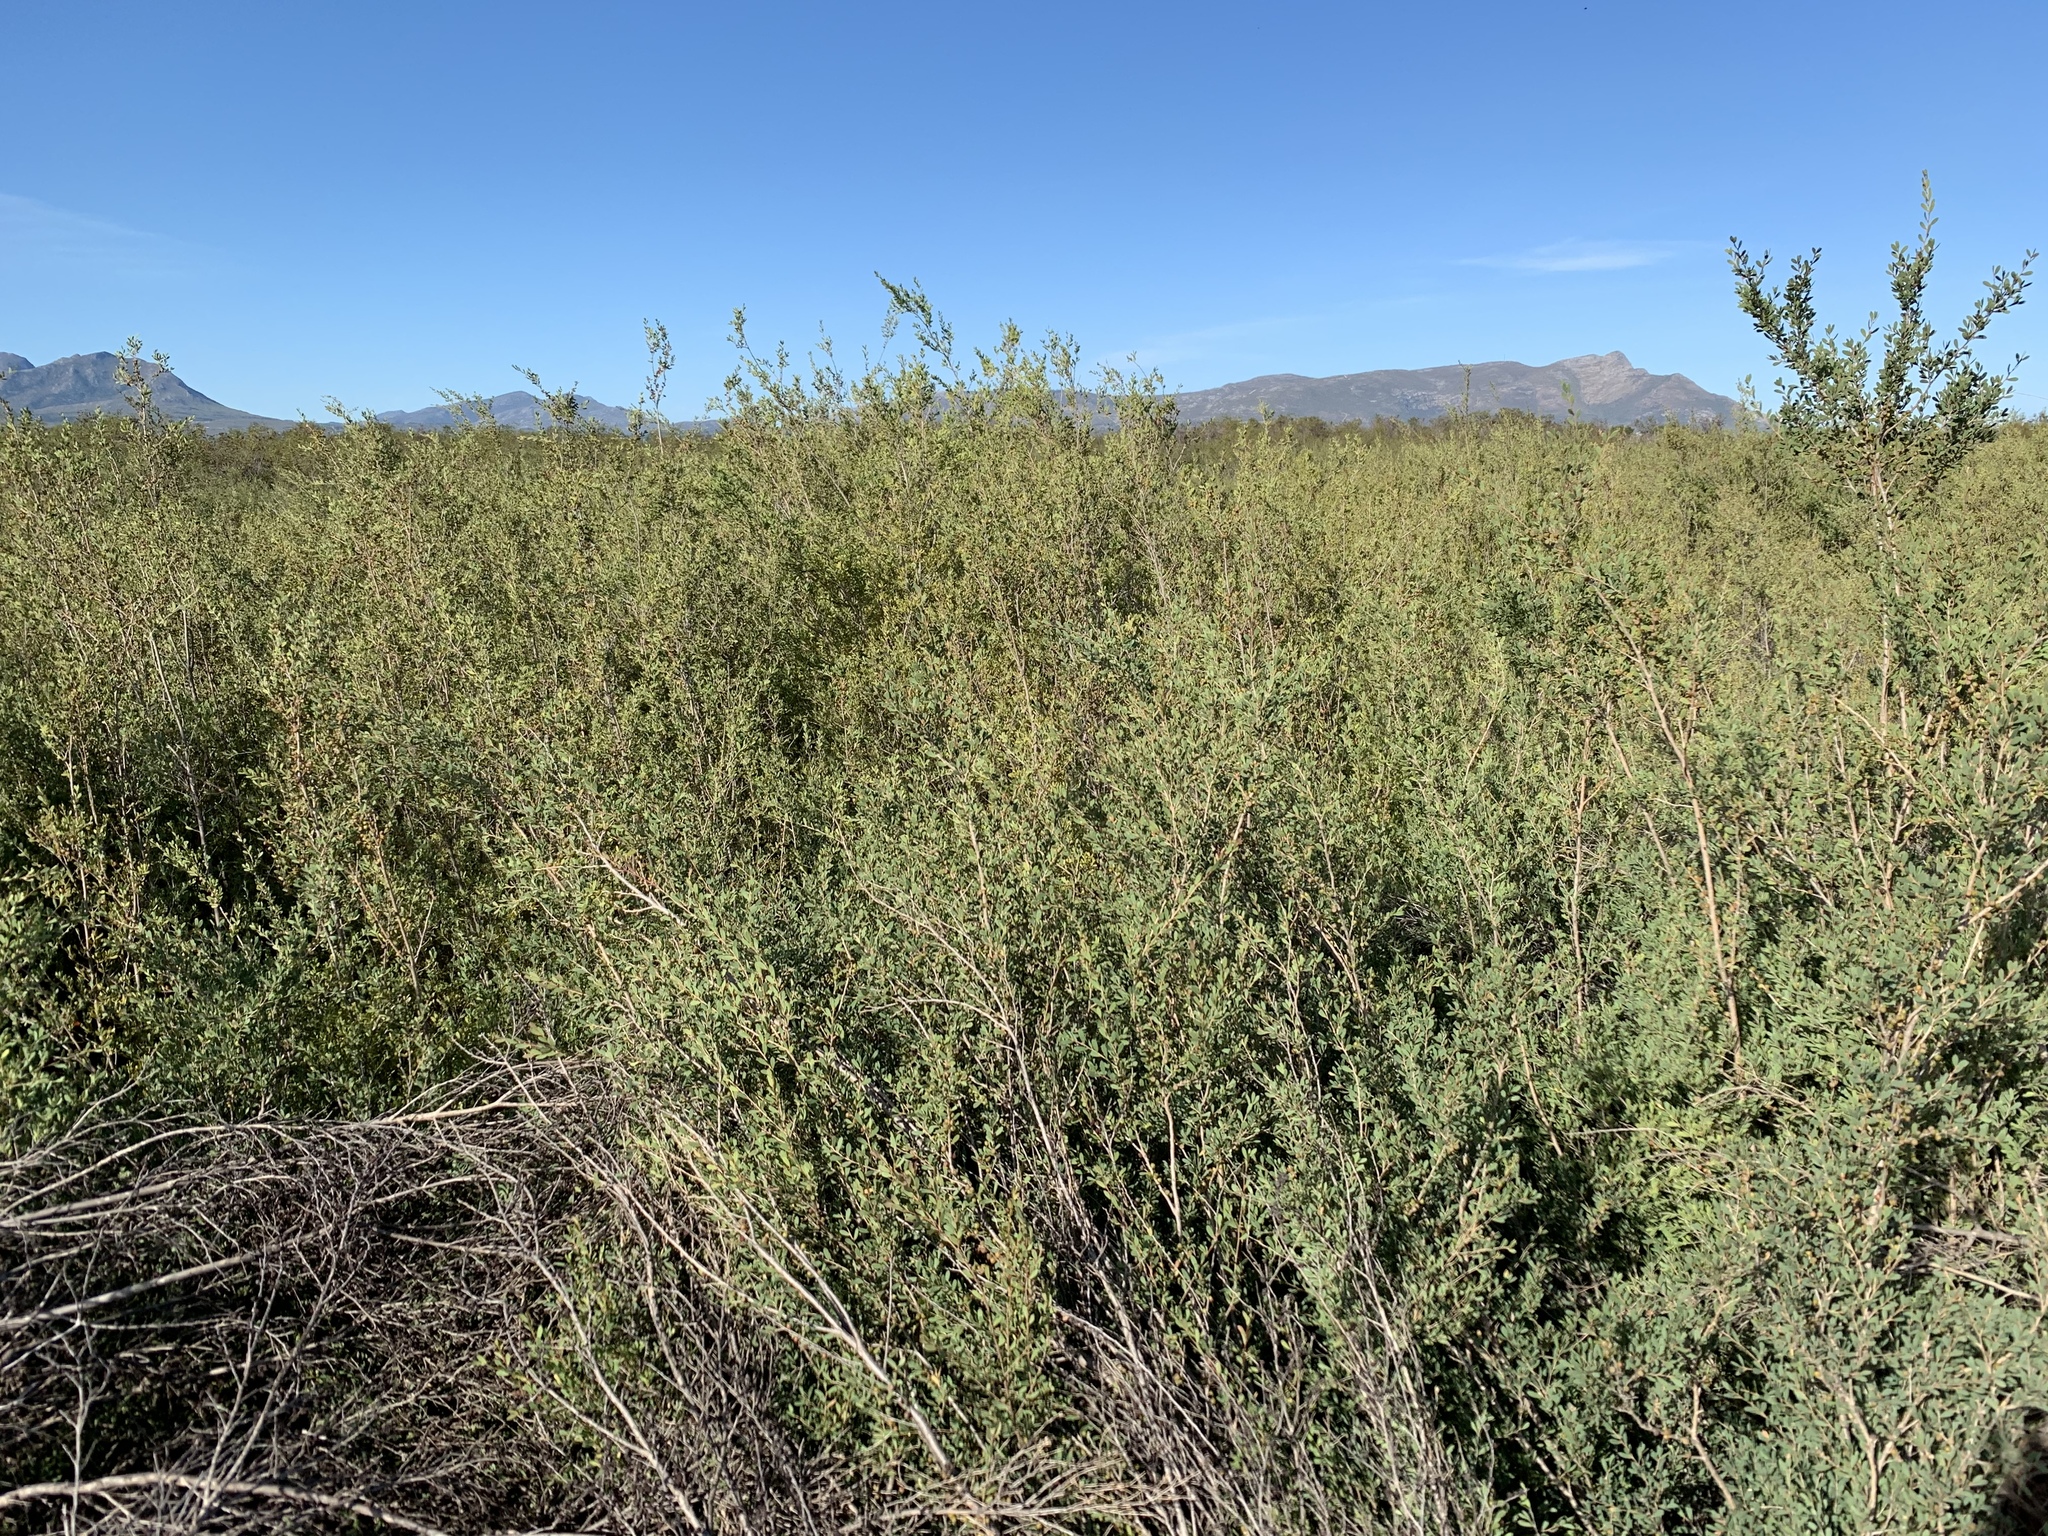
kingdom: Plantae
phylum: Tracheophyta
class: Magnoliopsida
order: Myrtales
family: Myrtaceae
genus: Leptospermum
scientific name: Leptospermum laevigatum
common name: Australian teatree
